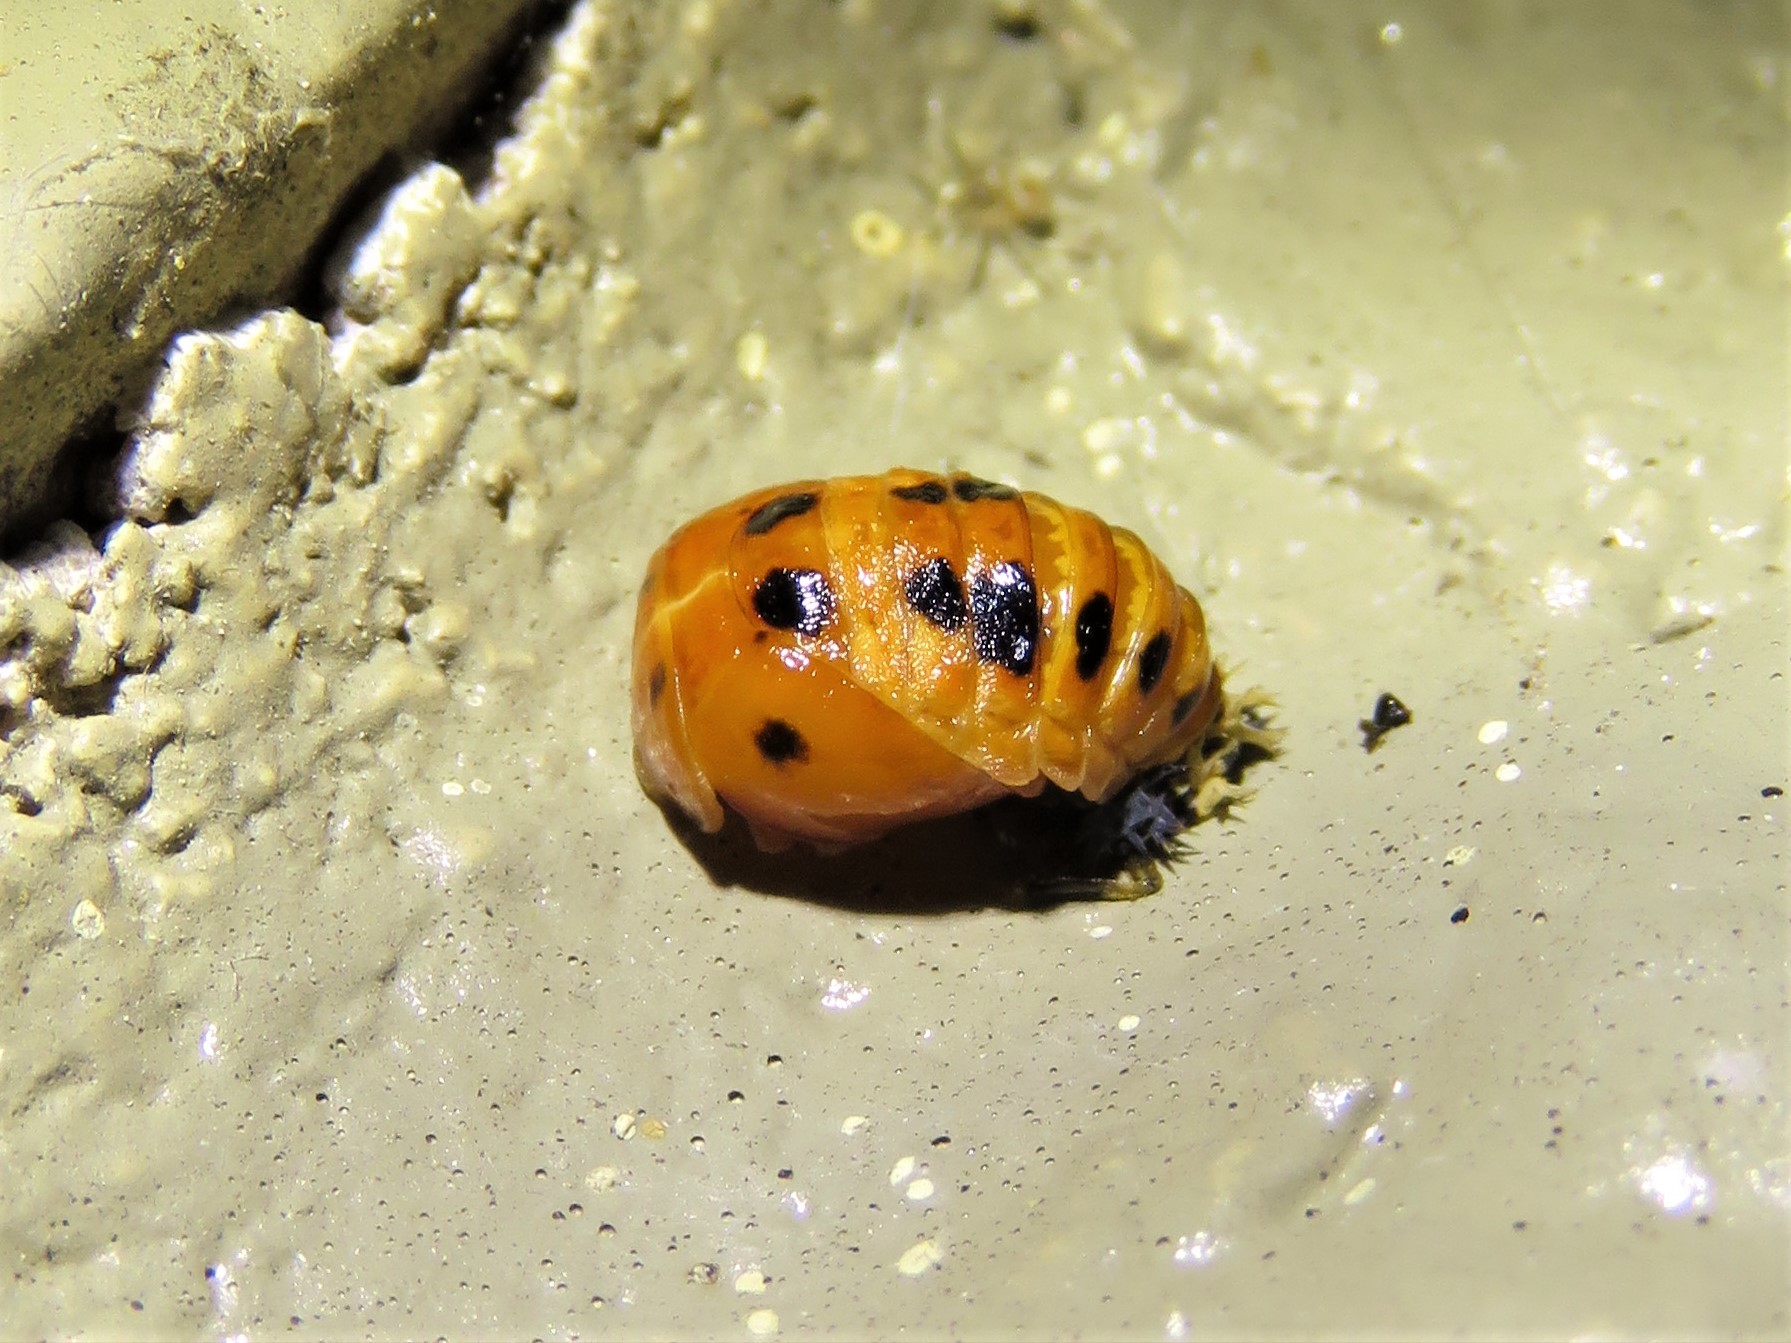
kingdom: Animalia
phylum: Arthropoda
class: Insecta
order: Coleoptera
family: Coccinellidae
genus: Harmonia
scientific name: Harmonia axyridis
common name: Harlequin ladybird
